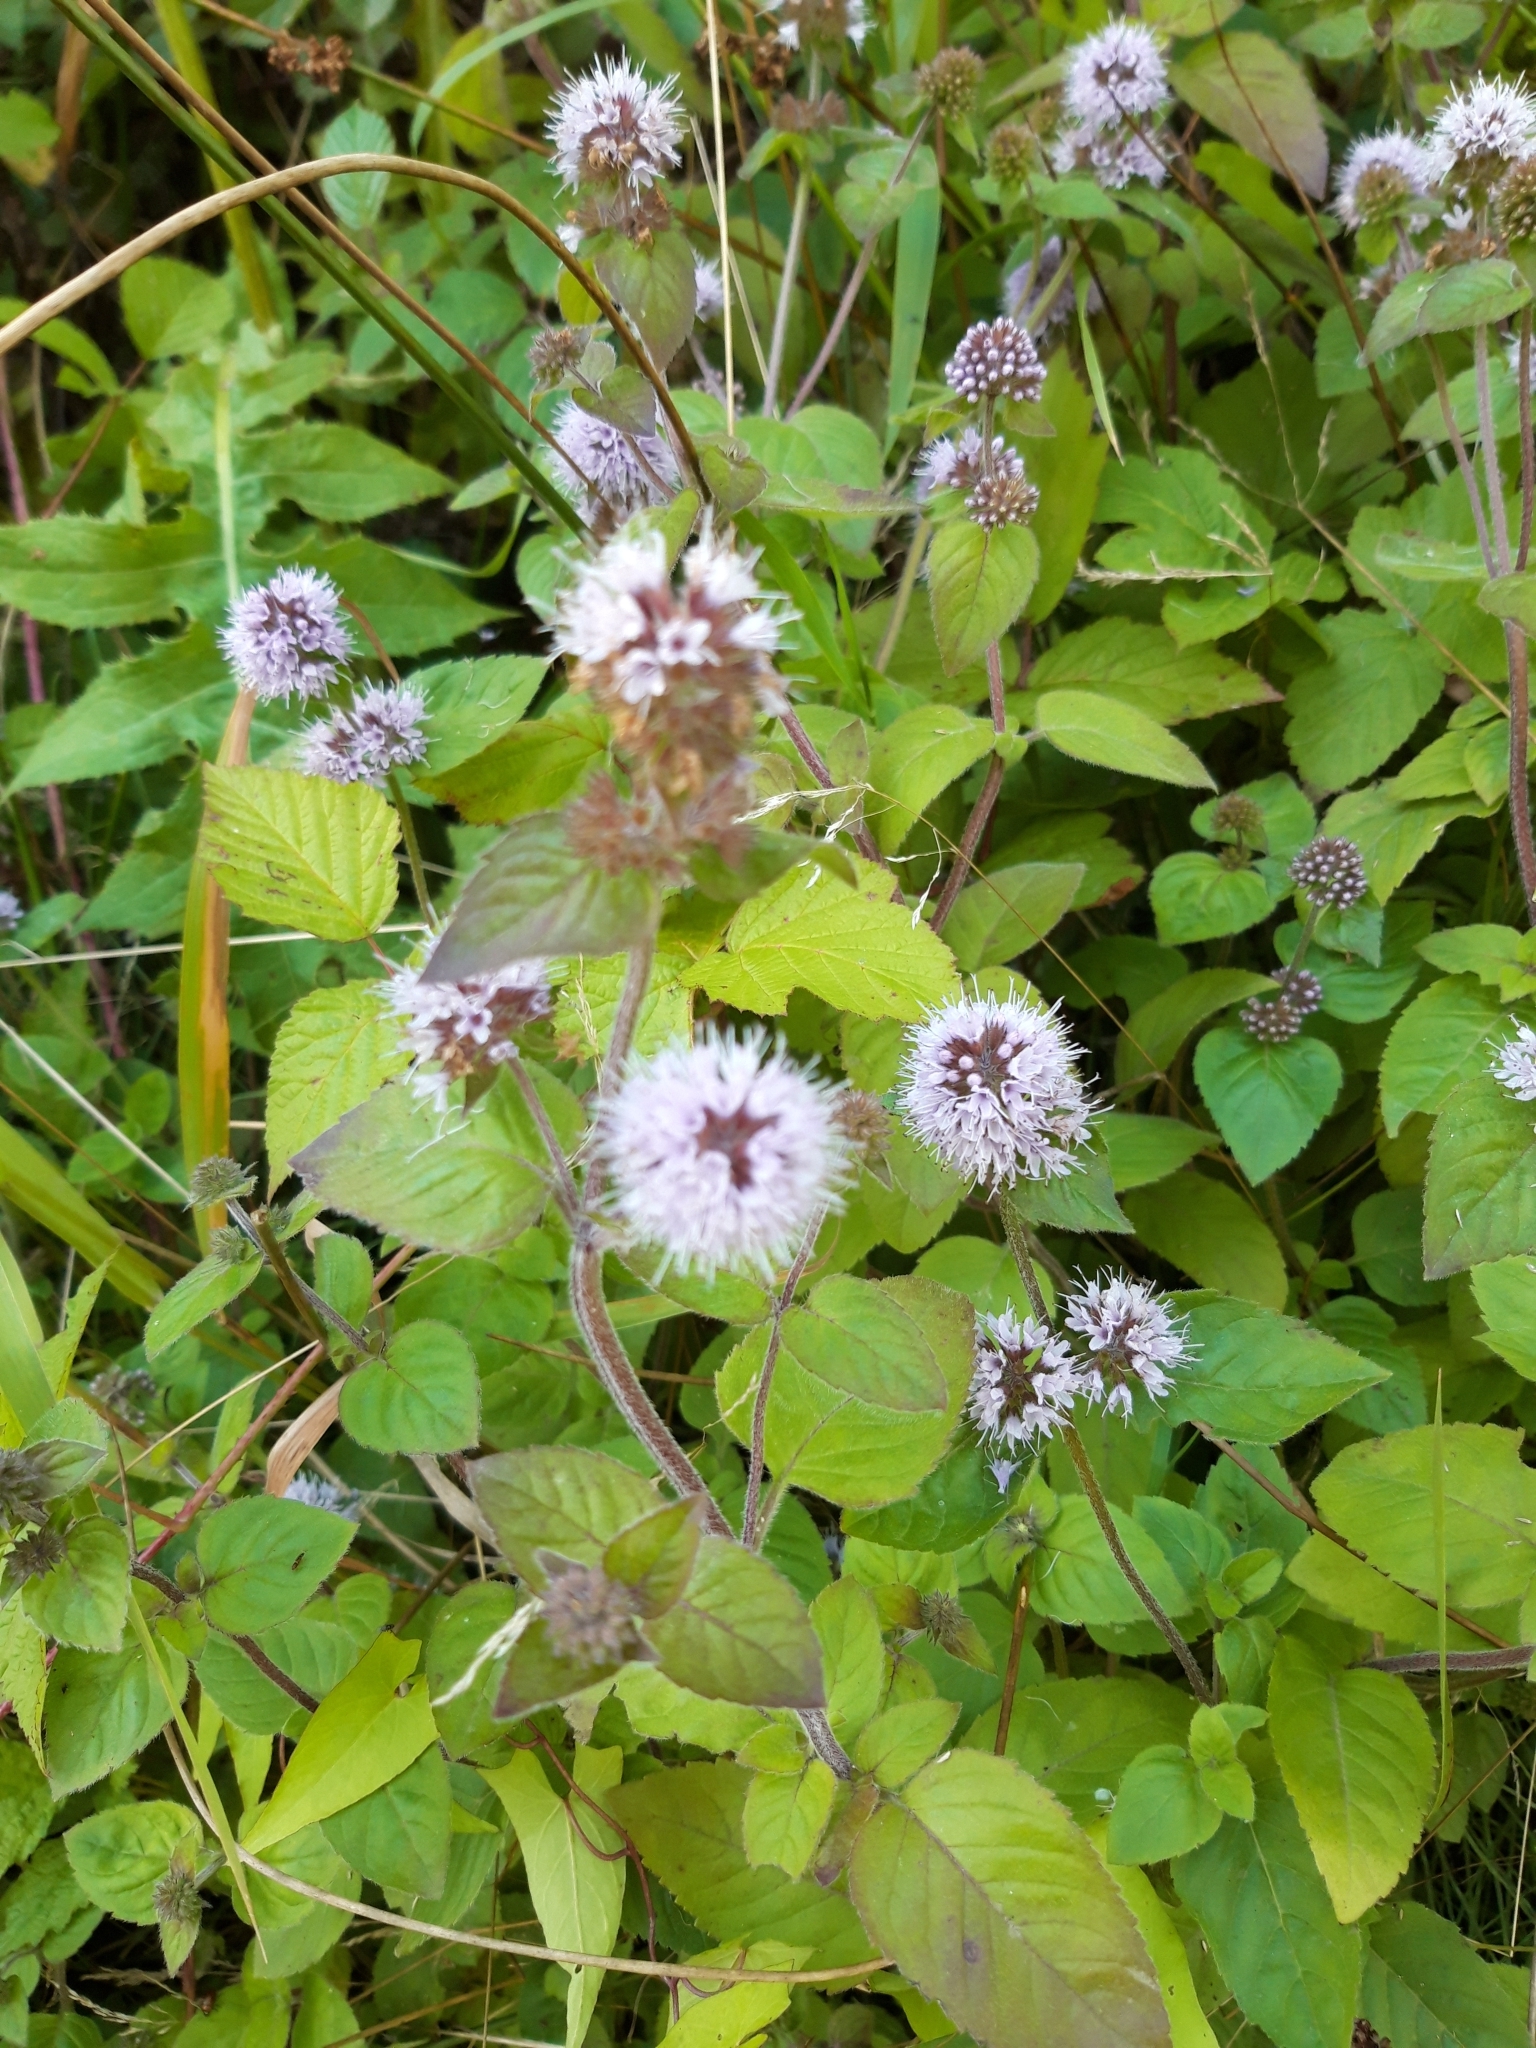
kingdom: Plantae
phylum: Tracheophyta
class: Magnoliopsida
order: Lamiales
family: Lamiaceae
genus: Mentha
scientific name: Mentha aquatica
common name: Water mint
